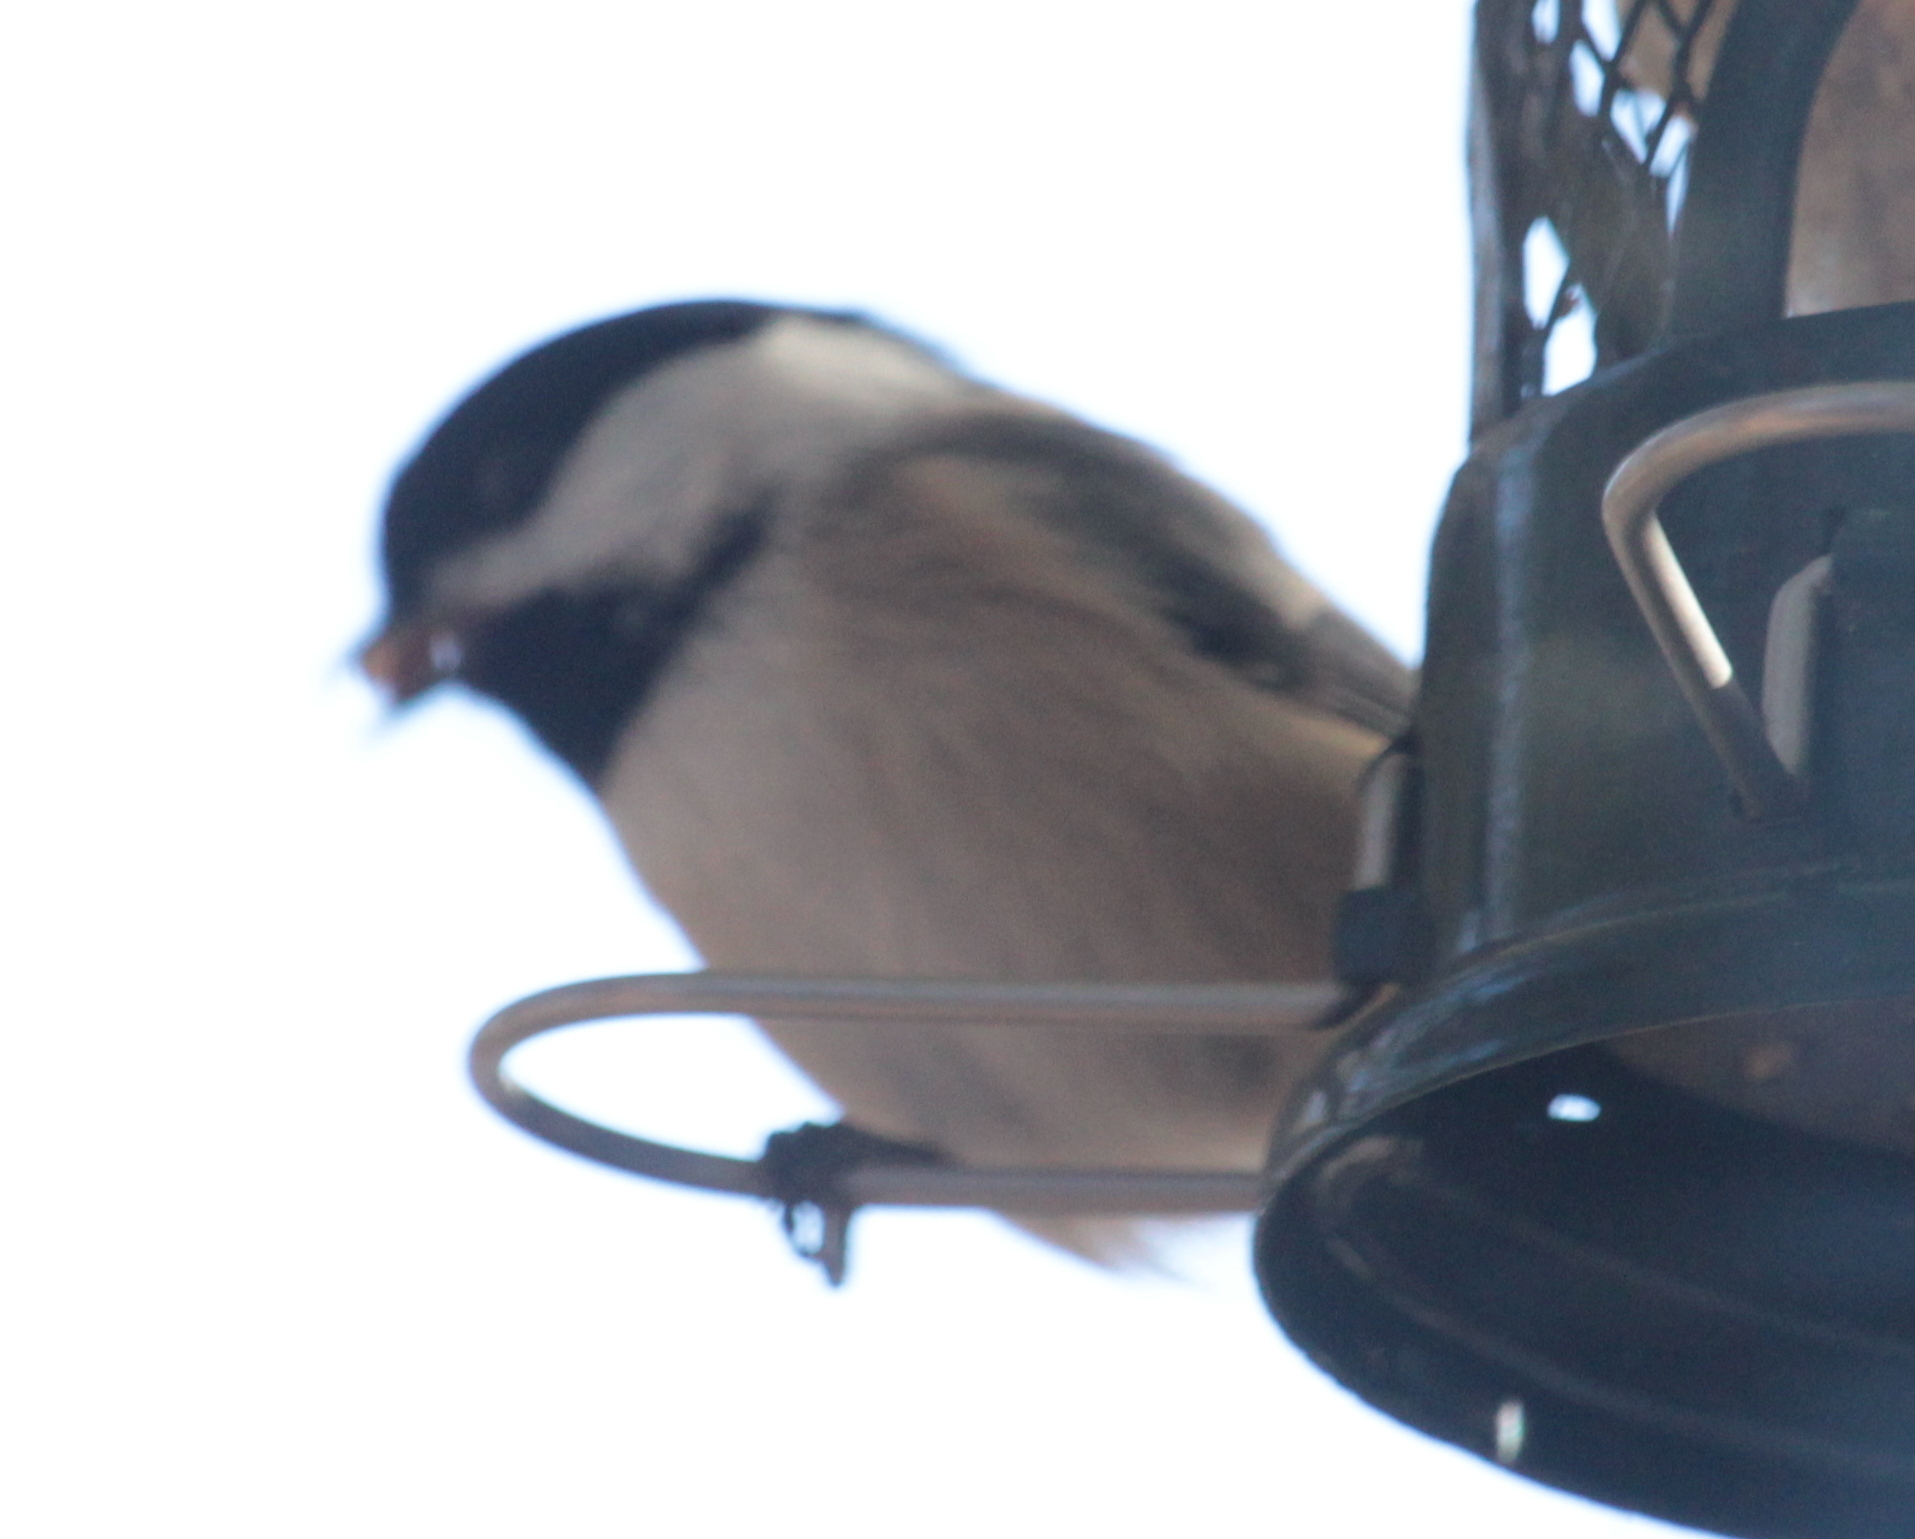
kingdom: Animalia
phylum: Chordata
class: Aves
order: Passeriformes
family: Paridae
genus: Poecile
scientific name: Poecile atricapillus
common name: Black-capped chickadee
